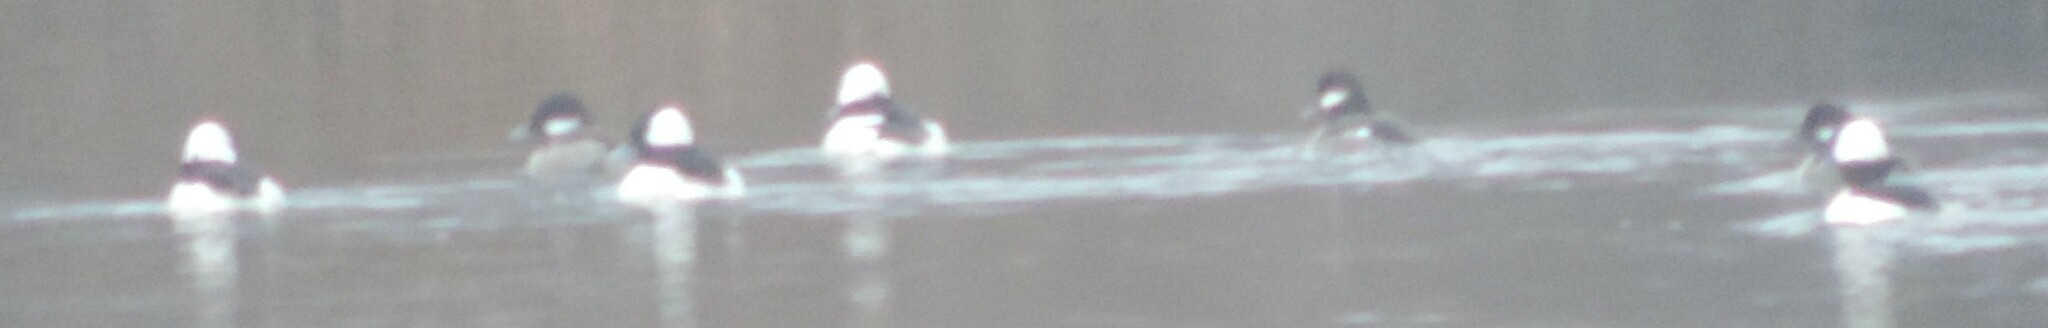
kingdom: Animalia
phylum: Chordata
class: Aves
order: Anseriformes
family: Anatidae
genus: Bucephala
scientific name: Bucephala albeola
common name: Bufflehead
